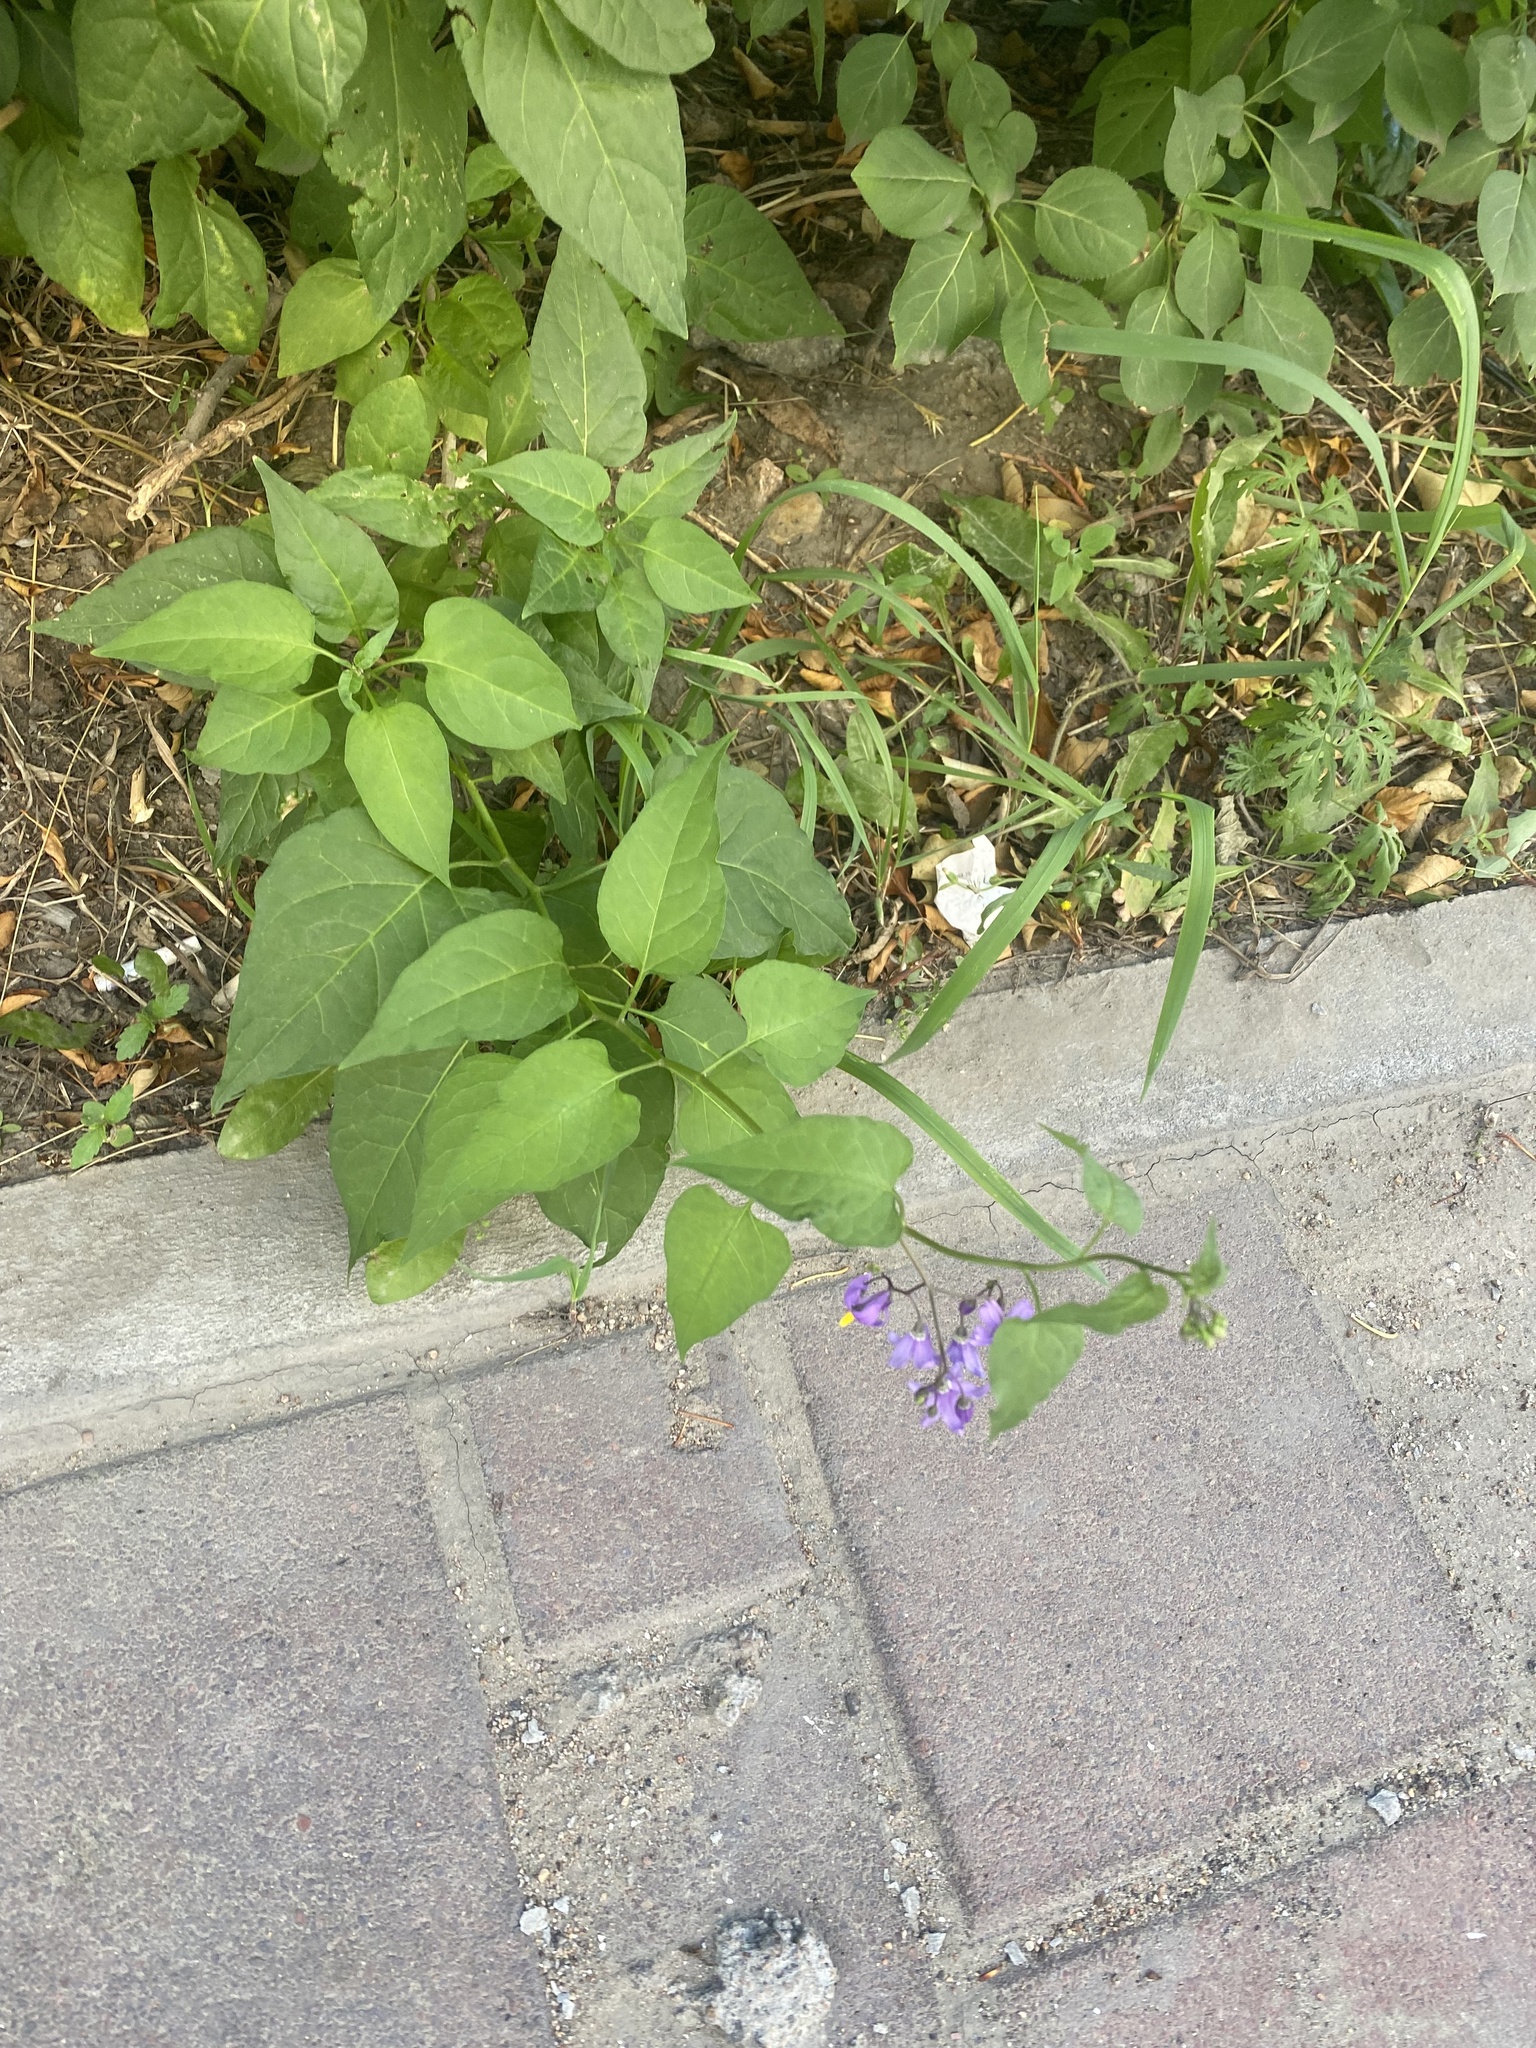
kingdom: Plantae
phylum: Tracheophyta
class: Magnoliopsida
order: Solanales
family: Solanaceae
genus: Solanum
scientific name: Solanum dulcamara
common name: Climbing nightshade
